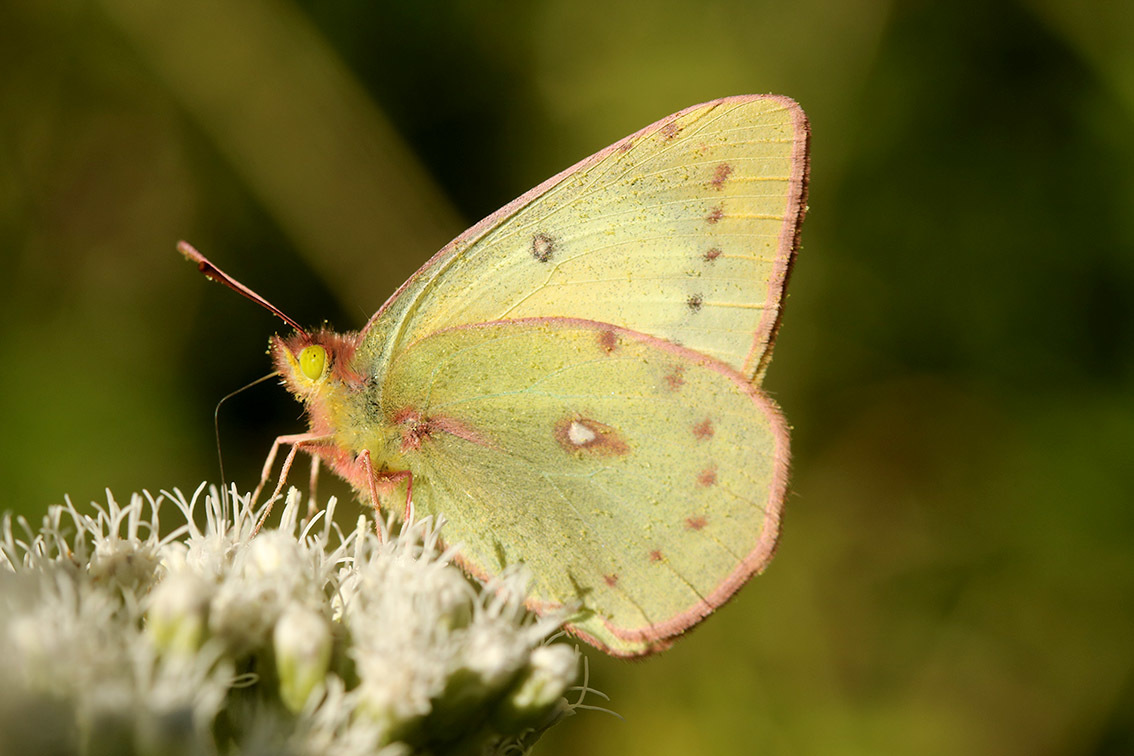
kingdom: Animalia
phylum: Arthropoda
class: Insecta
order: Lepidoptera
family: Pieridae
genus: Colias
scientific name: Colias lesbia
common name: Lesbia clouded yellow
